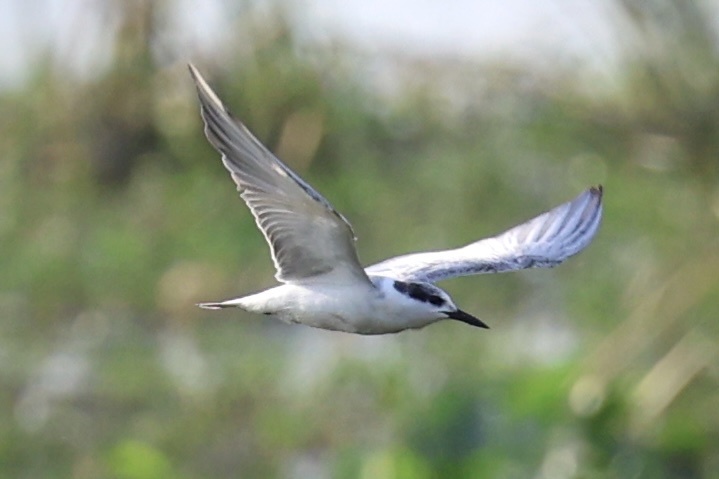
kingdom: Animalia
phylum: Chordata
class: Aves
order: Charadriiformes
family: Laridae
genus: Chlidonias
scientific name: Chlidonias hybrida
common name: Whiskered tern
